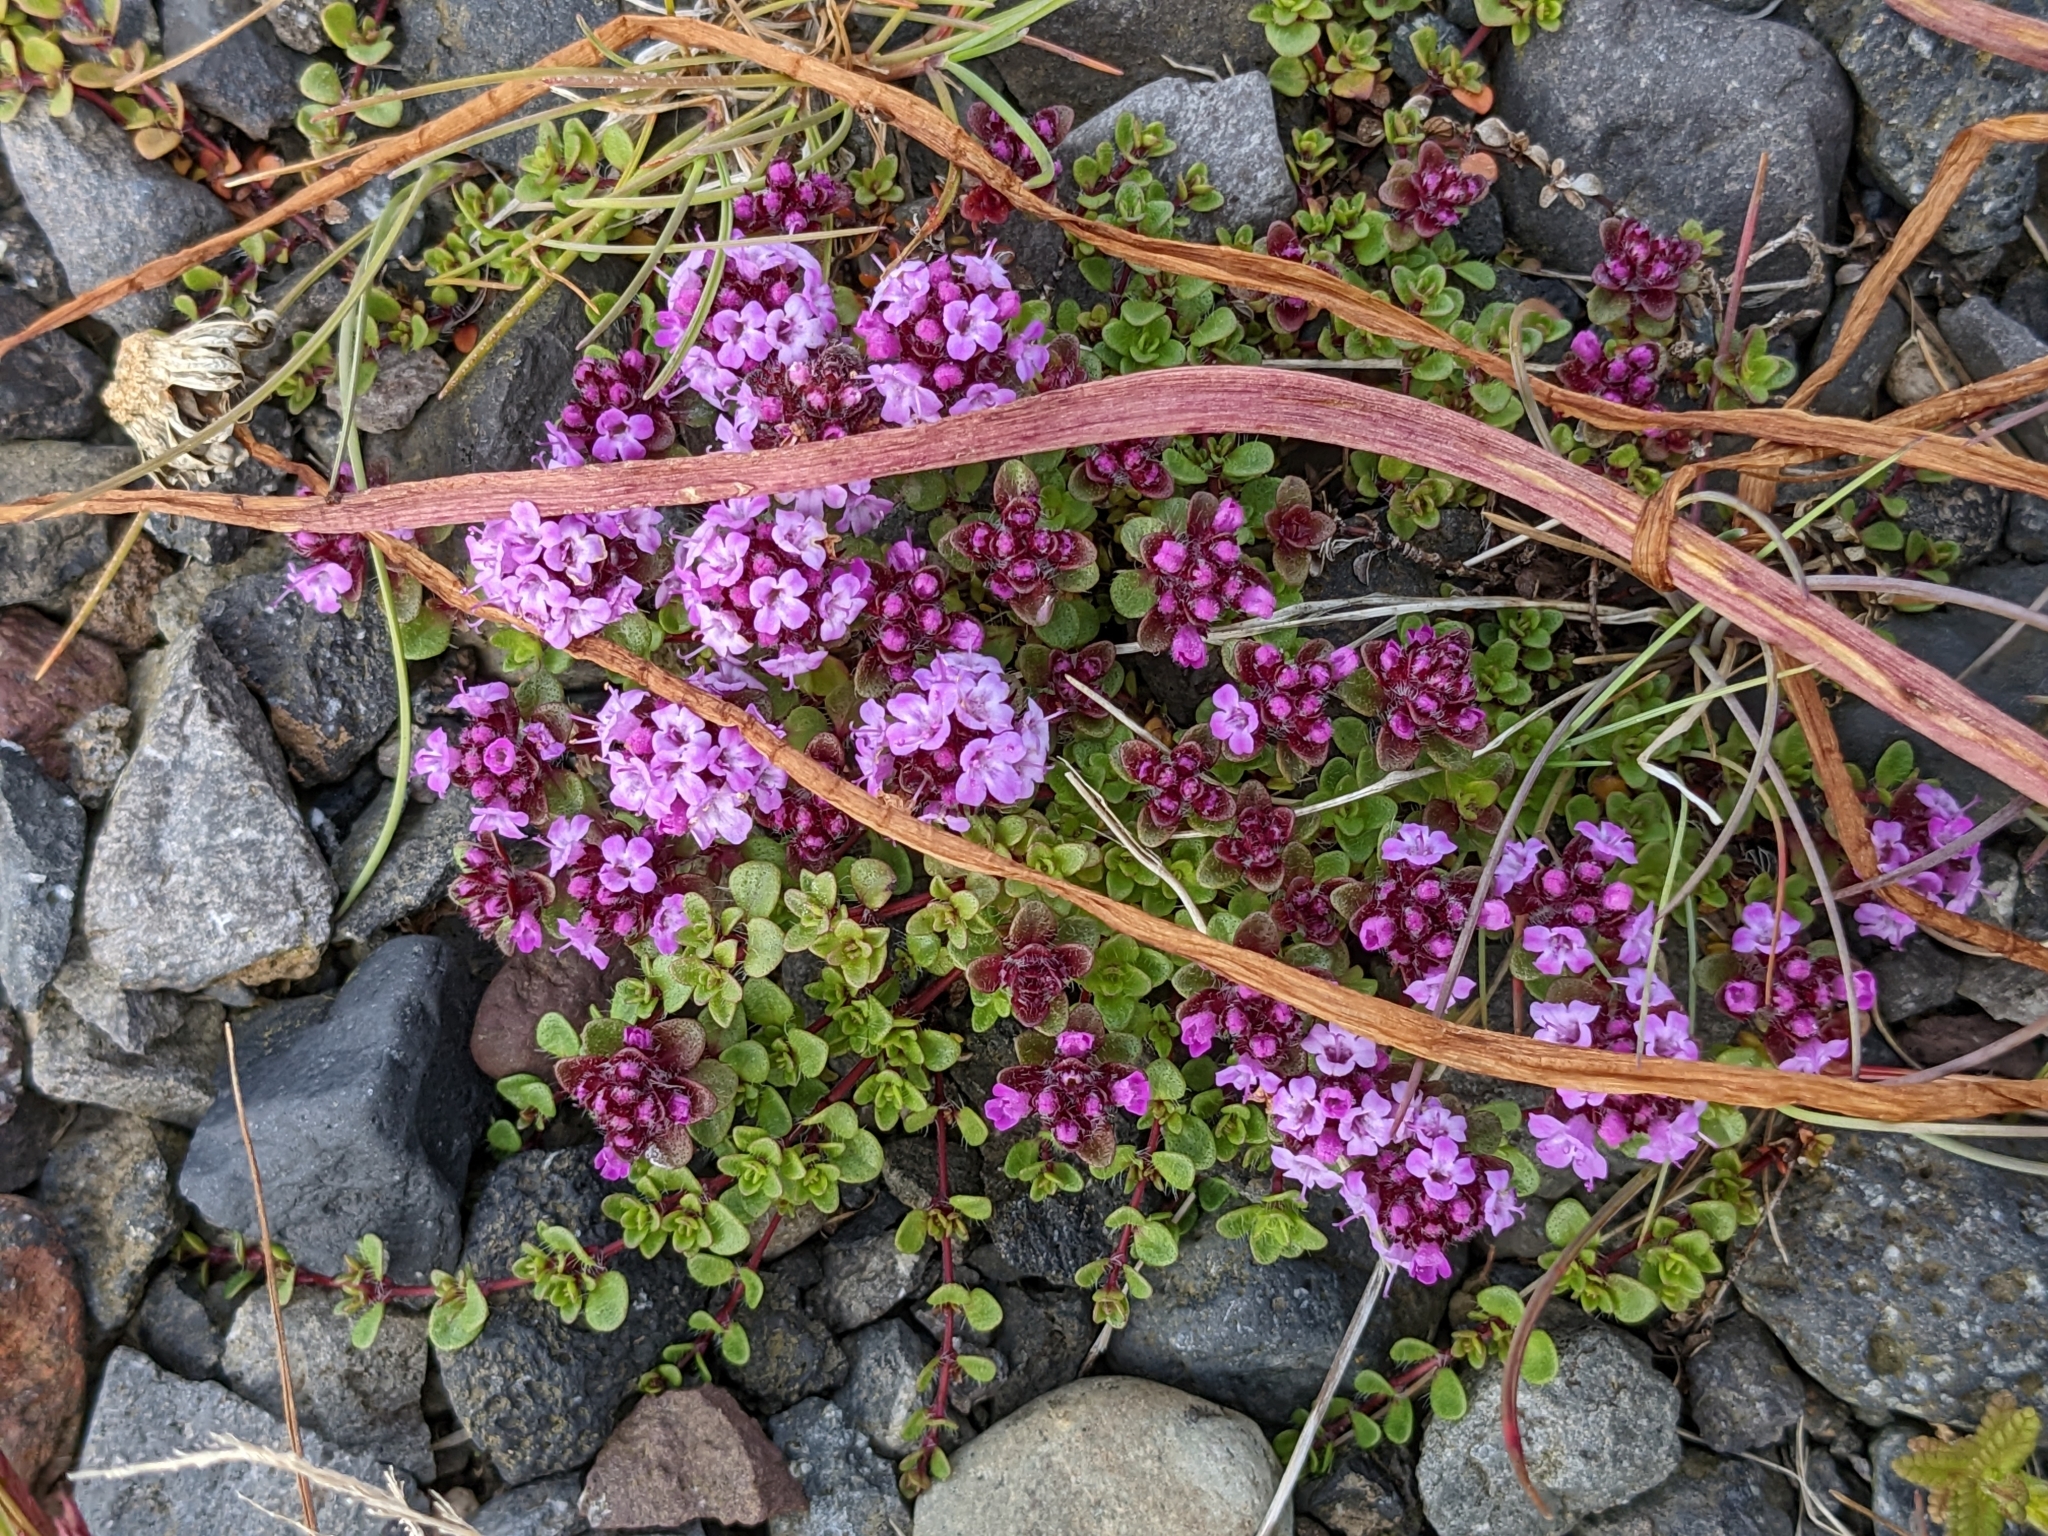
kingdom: Plantae
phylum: Tracheophyta
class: Magnoliopsida
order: Lamiales
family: Lamiaceae
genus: Thymus
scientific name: Thymus praecox
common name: Wild thyme
